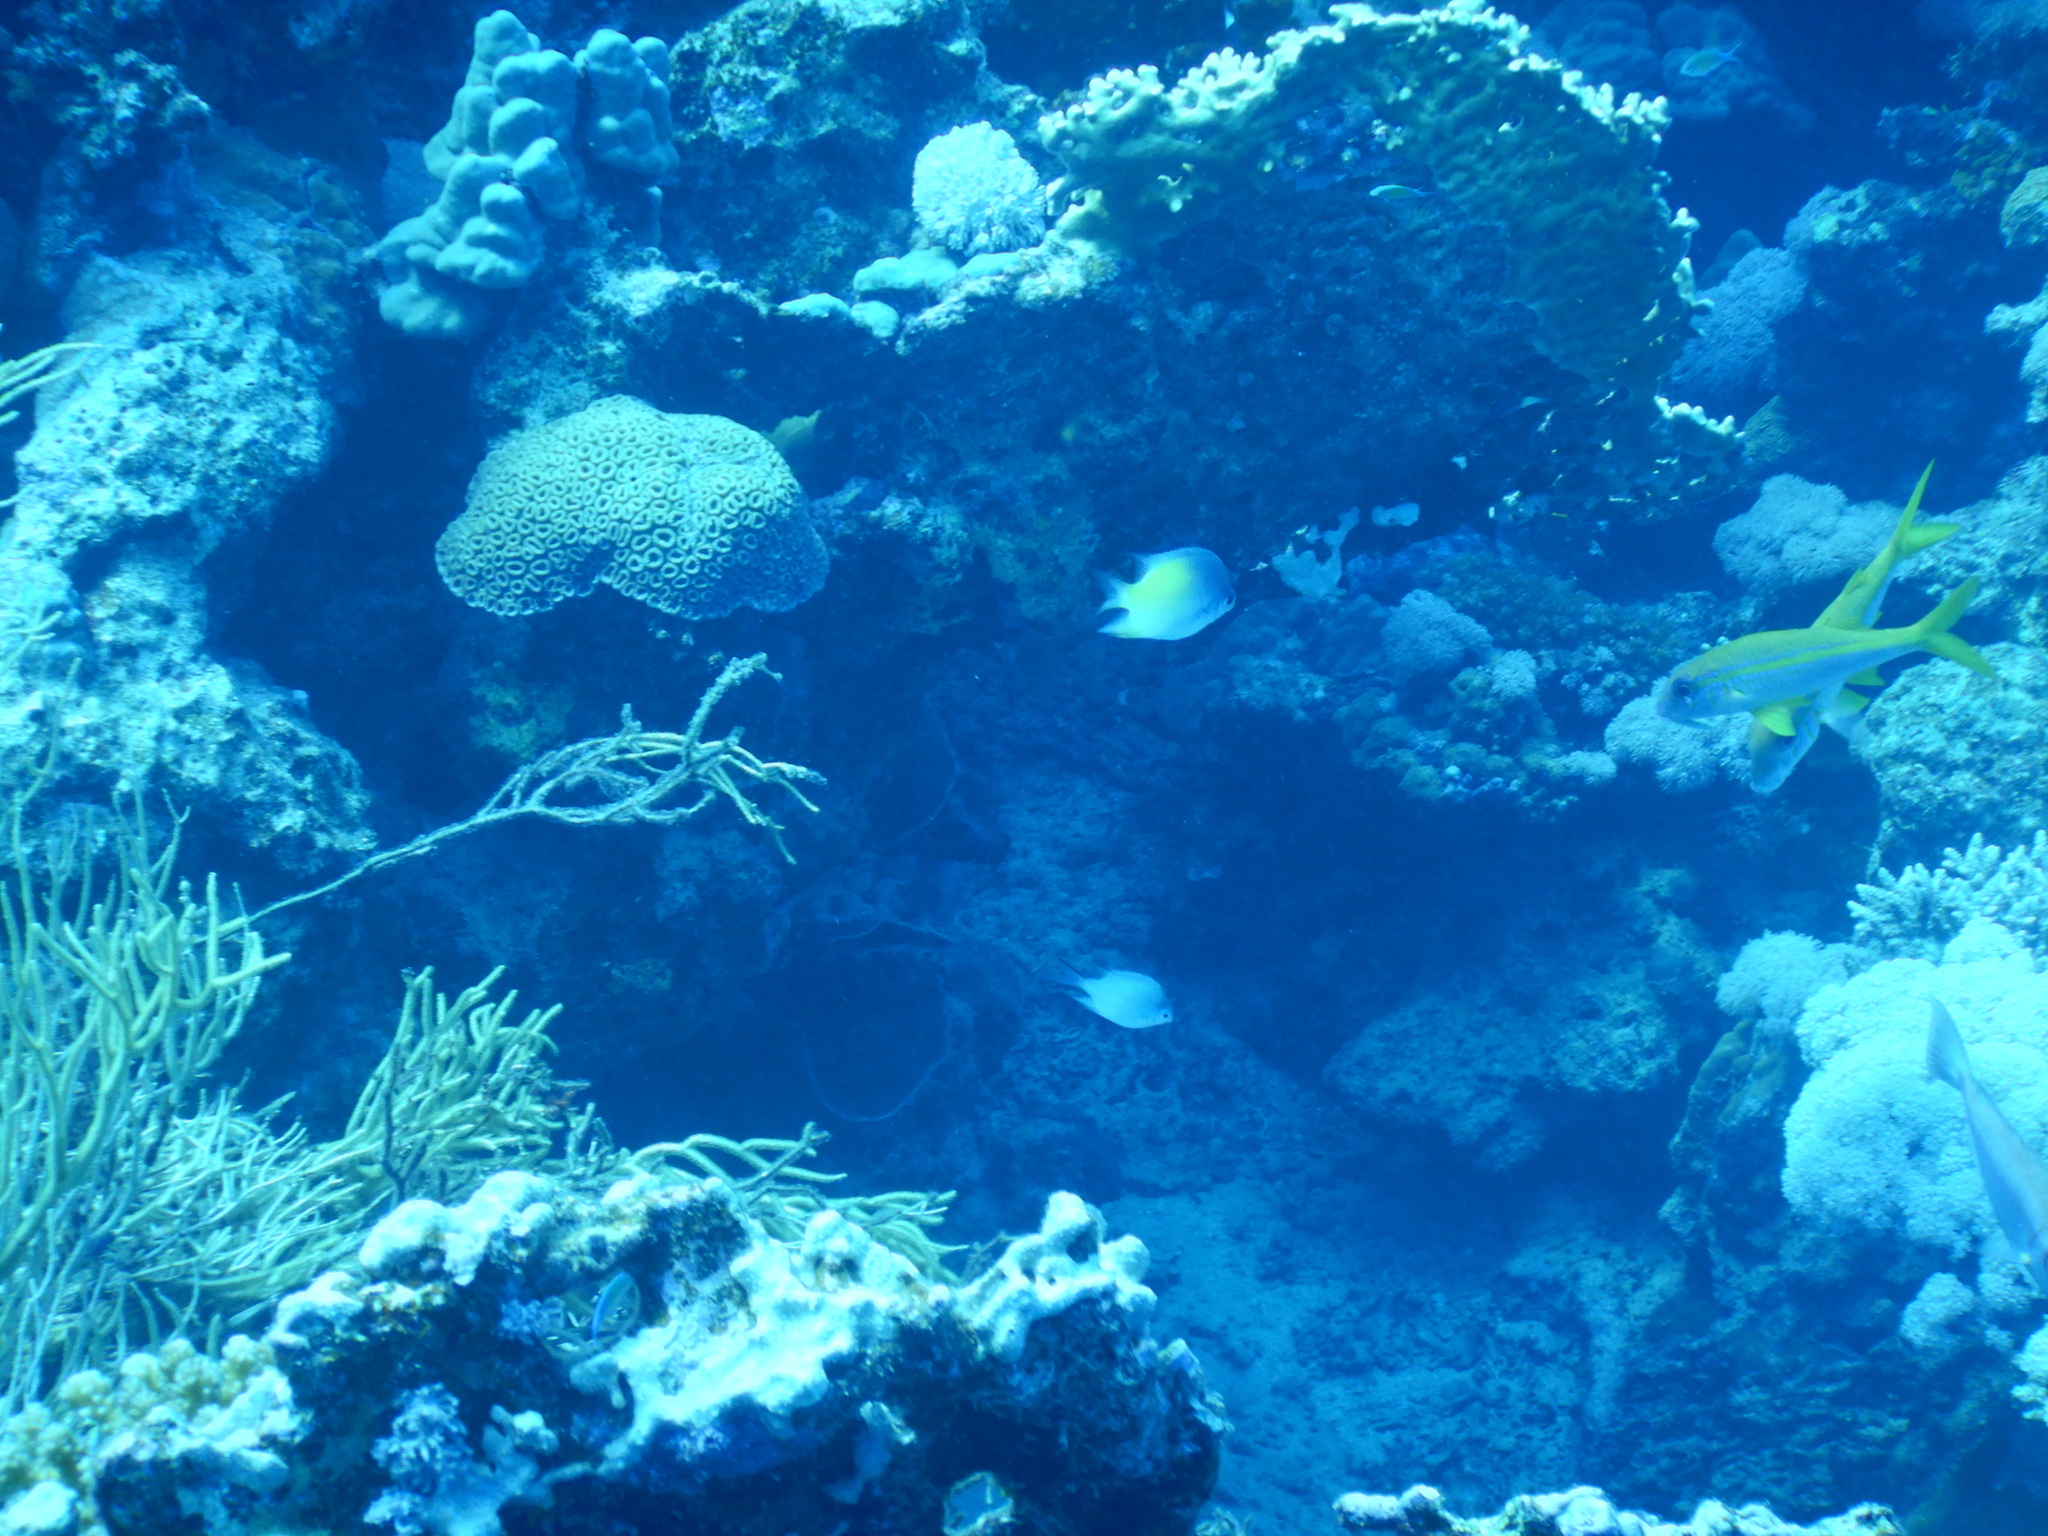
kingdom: Animalia
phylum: Chordata
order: Perciformes
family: Mullidae
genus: Mulloidichthys
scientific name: Mulloidichthys vanicolensis
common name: Yellowfin goatfish
